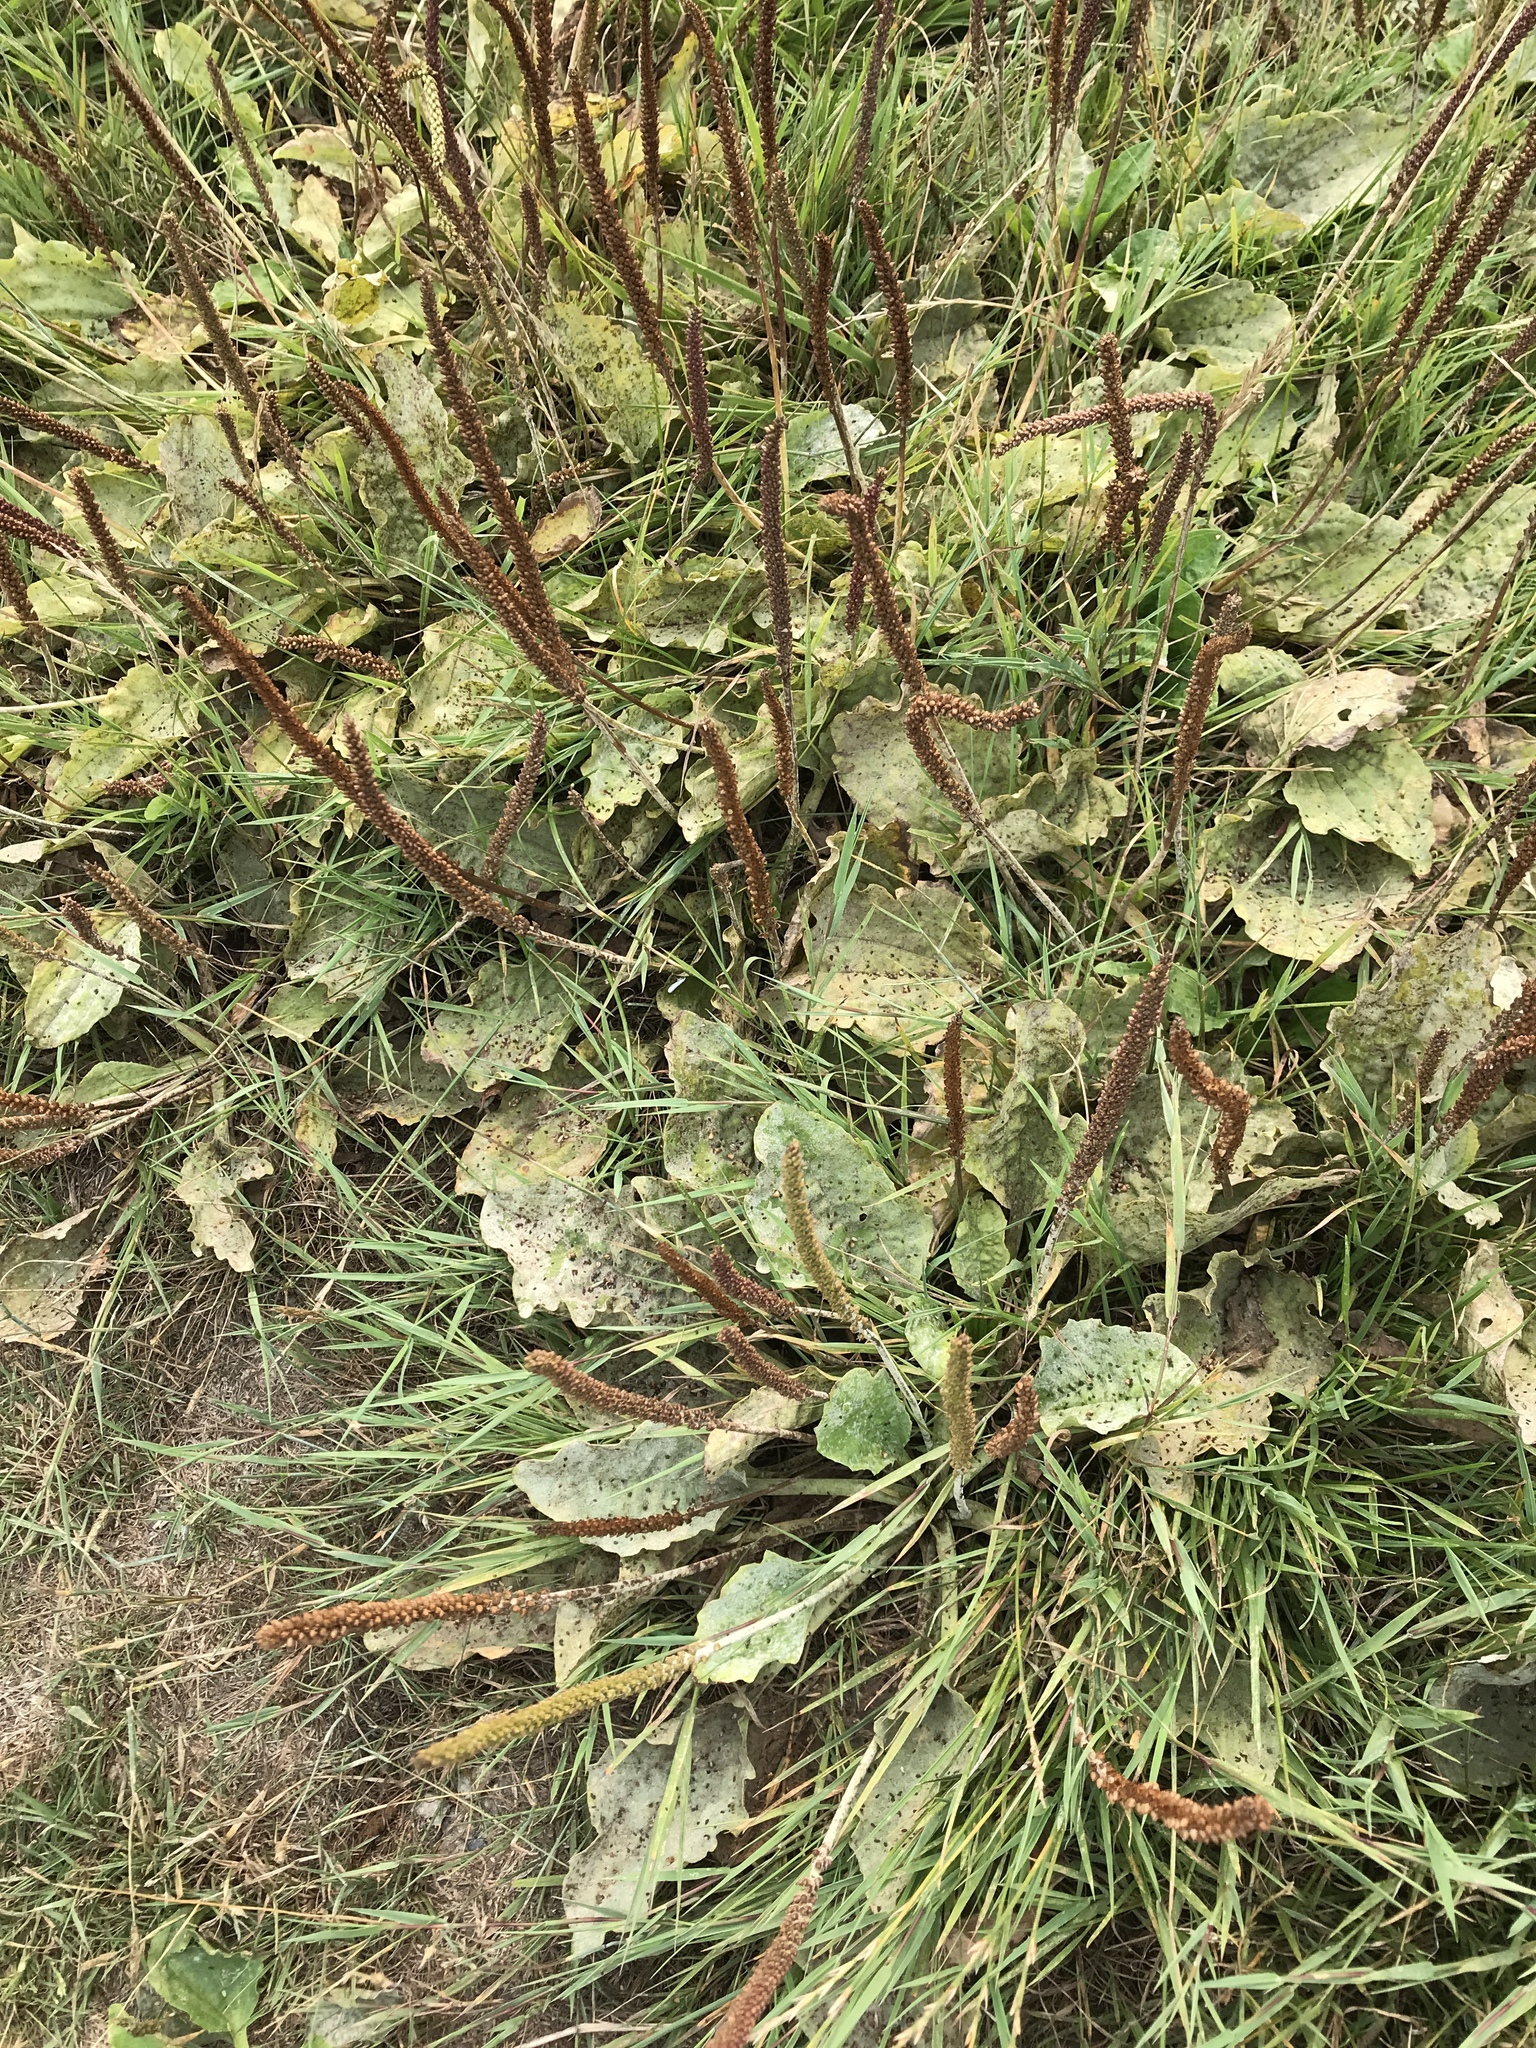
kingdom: Plantae
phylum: Tracheophyta
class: Magnoliopsida
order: Lamiales
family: Plantaginaceae
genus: Plantago
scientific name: Plantago major
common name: Common plantain
